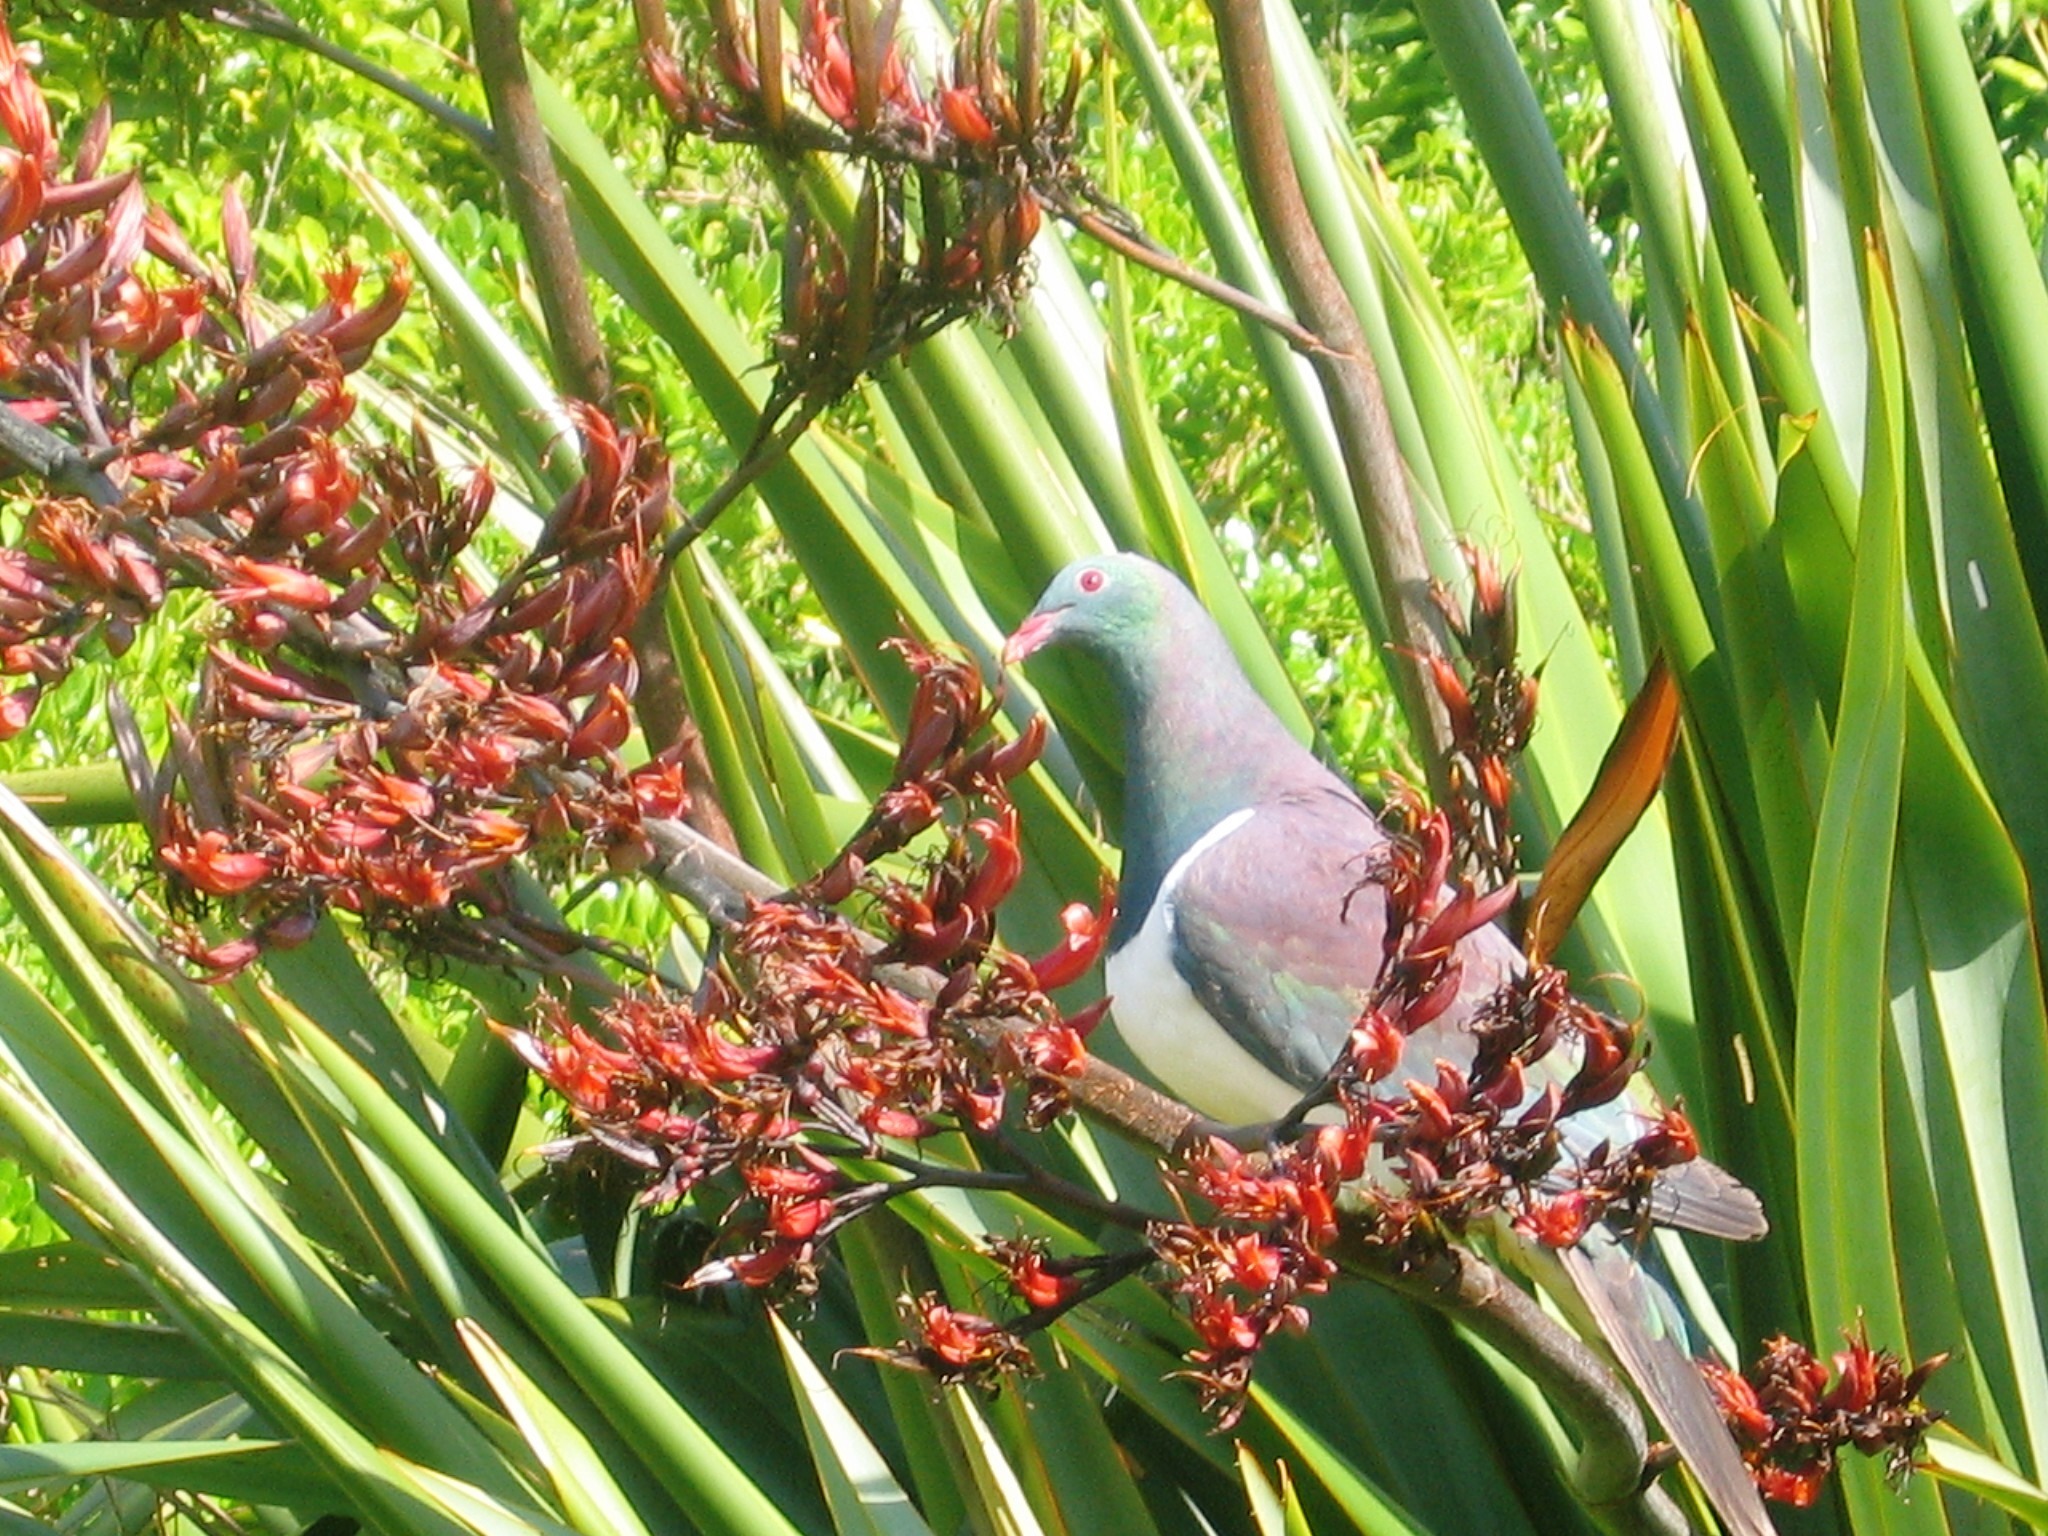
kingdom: Animalia
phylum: Chordata
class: Aves
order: Columbiformes
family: Columbidae
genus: Hemiphaga
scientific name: Hemiphaga novaeseelandiae
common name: New zealand pigeon
